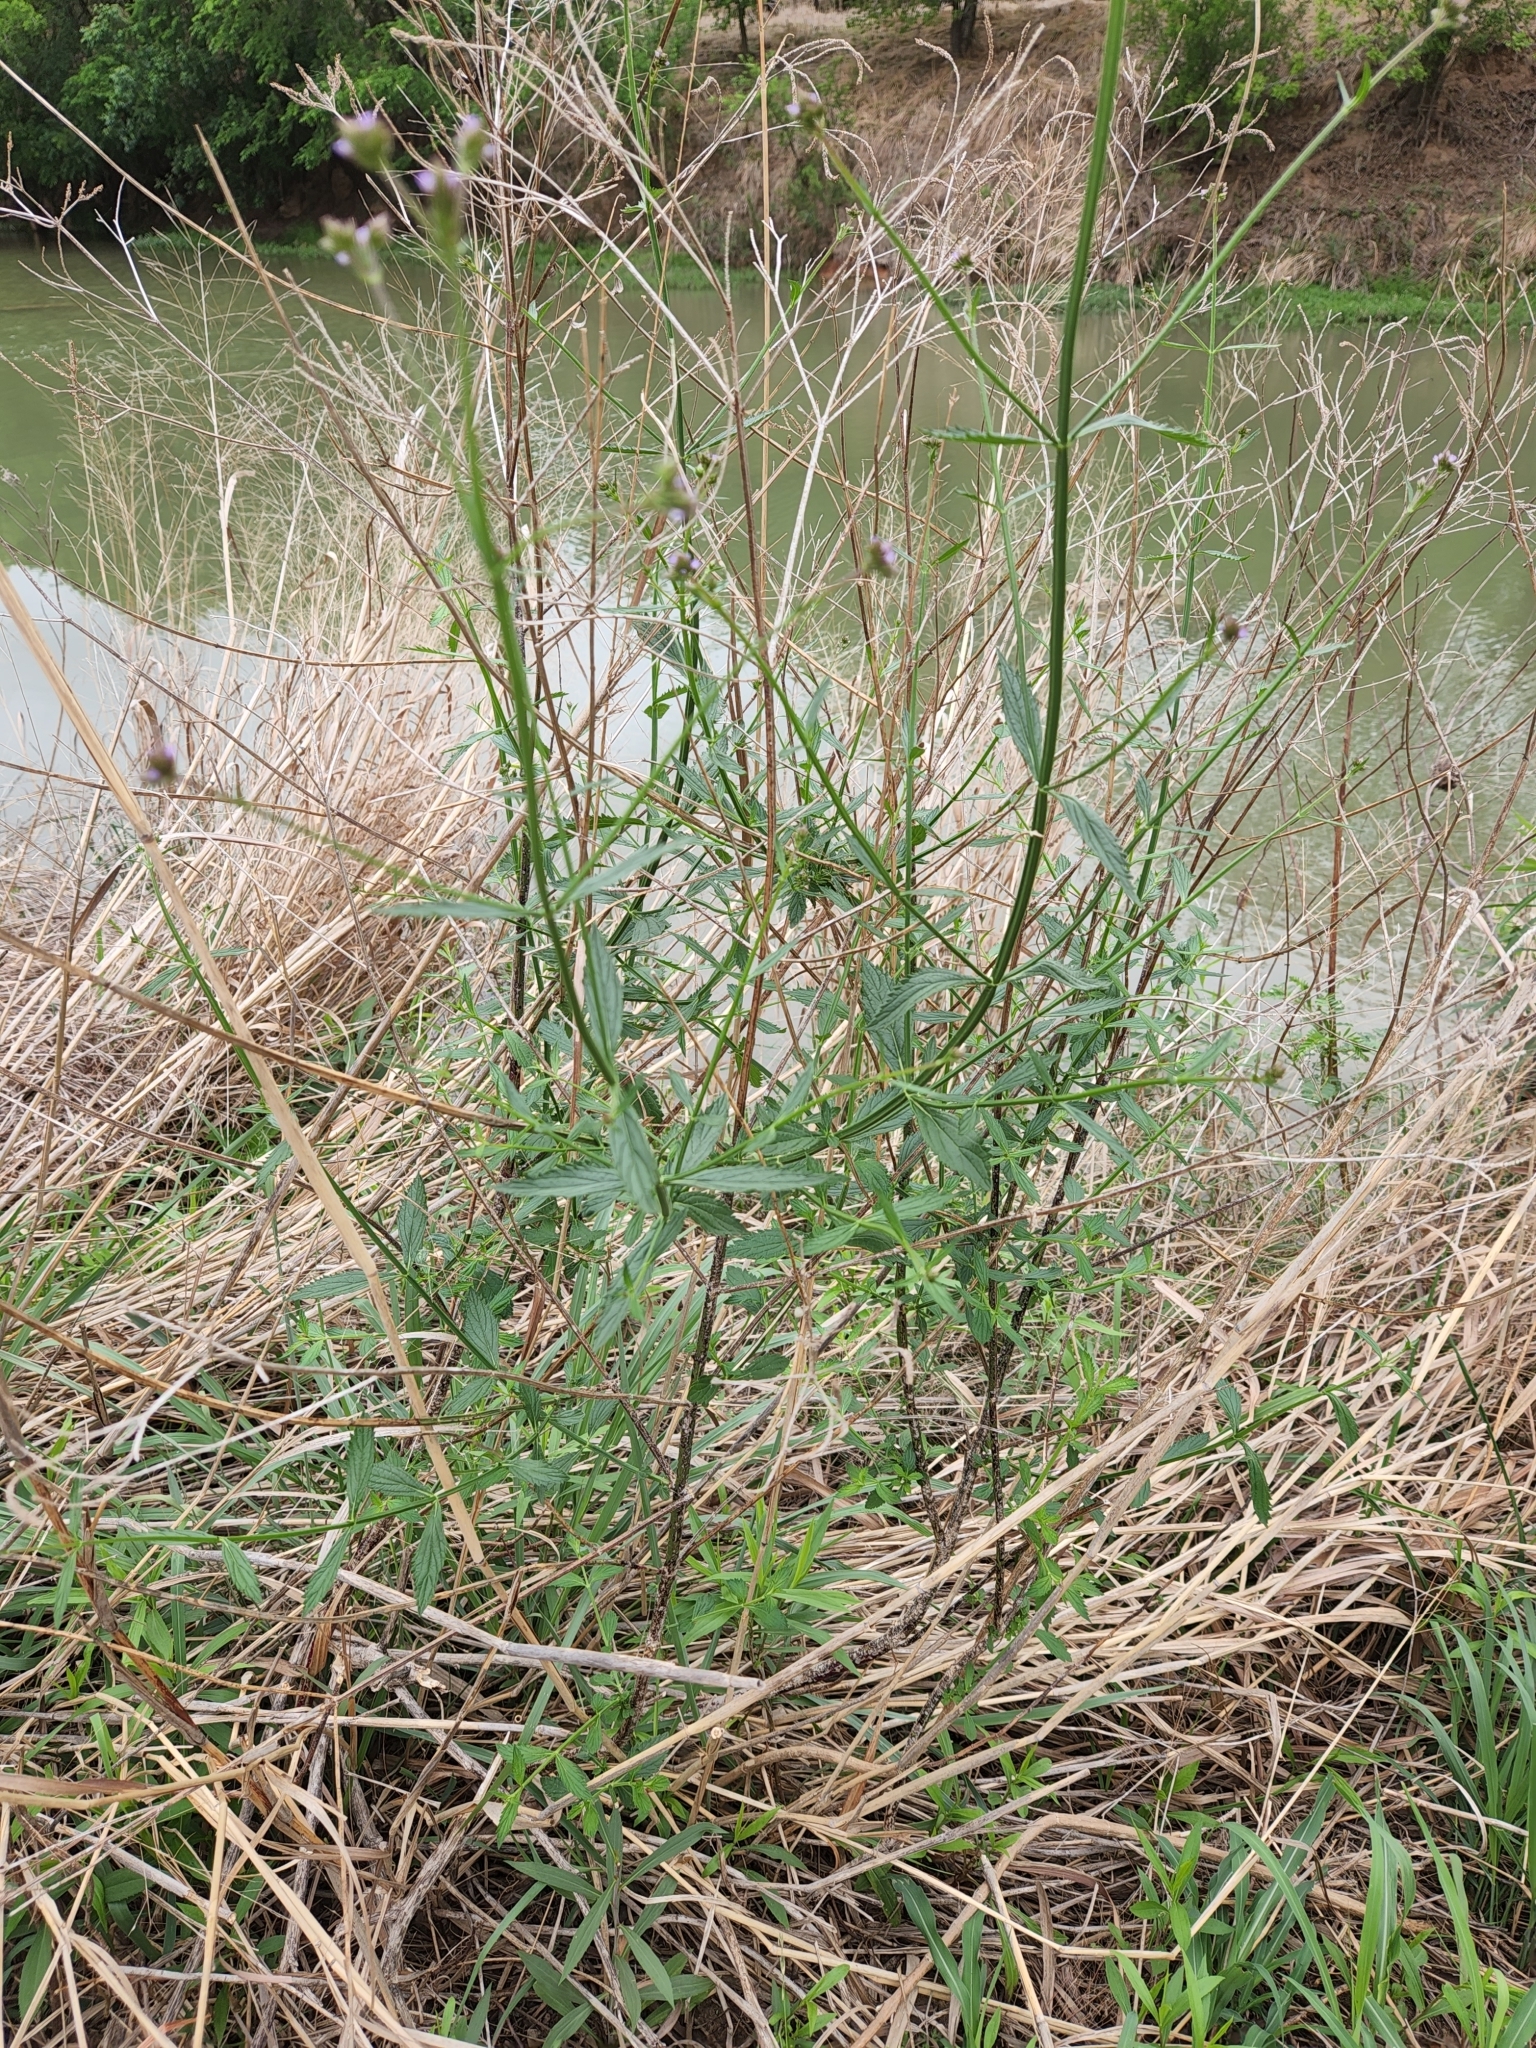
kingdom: Plantae
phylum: Tracheophyta
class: Magnoliopsida
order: Lamiales
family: Verbenaceae
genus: Verbena
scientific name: Verbena brasiliensis
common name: Brazilian vervain
